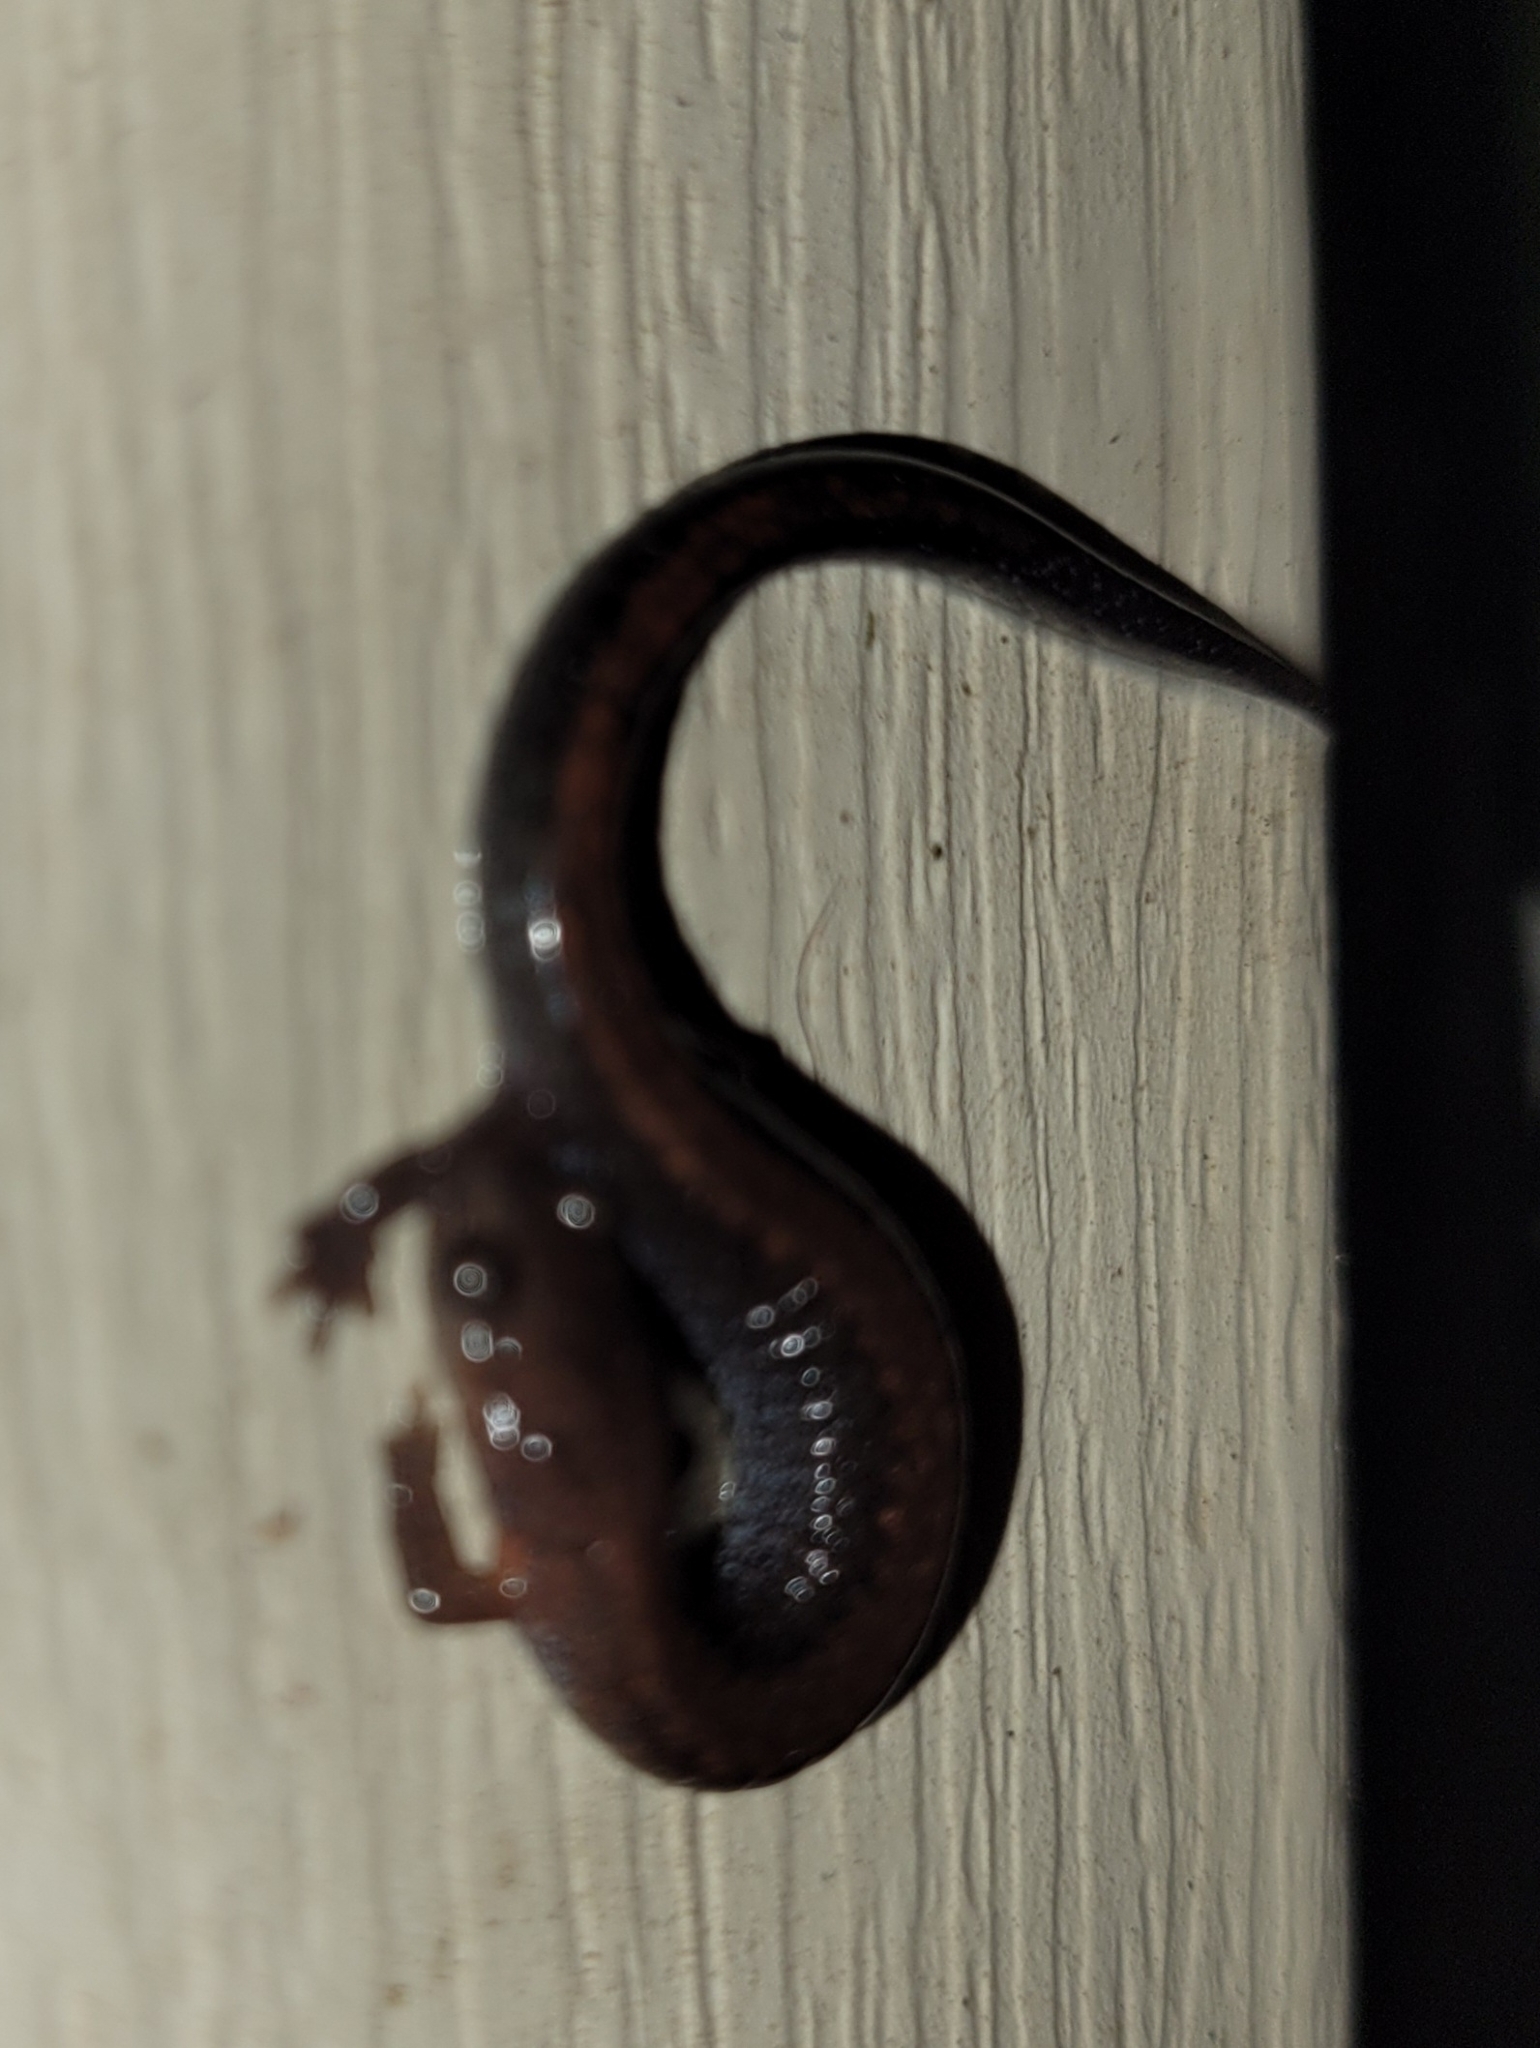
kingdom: Animalia
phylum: Chordata
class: Amphibia
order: Caudata
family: Plethodontidae
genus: Plethodon
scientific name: Plethodon serratus
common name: Southern red-backed salamander
